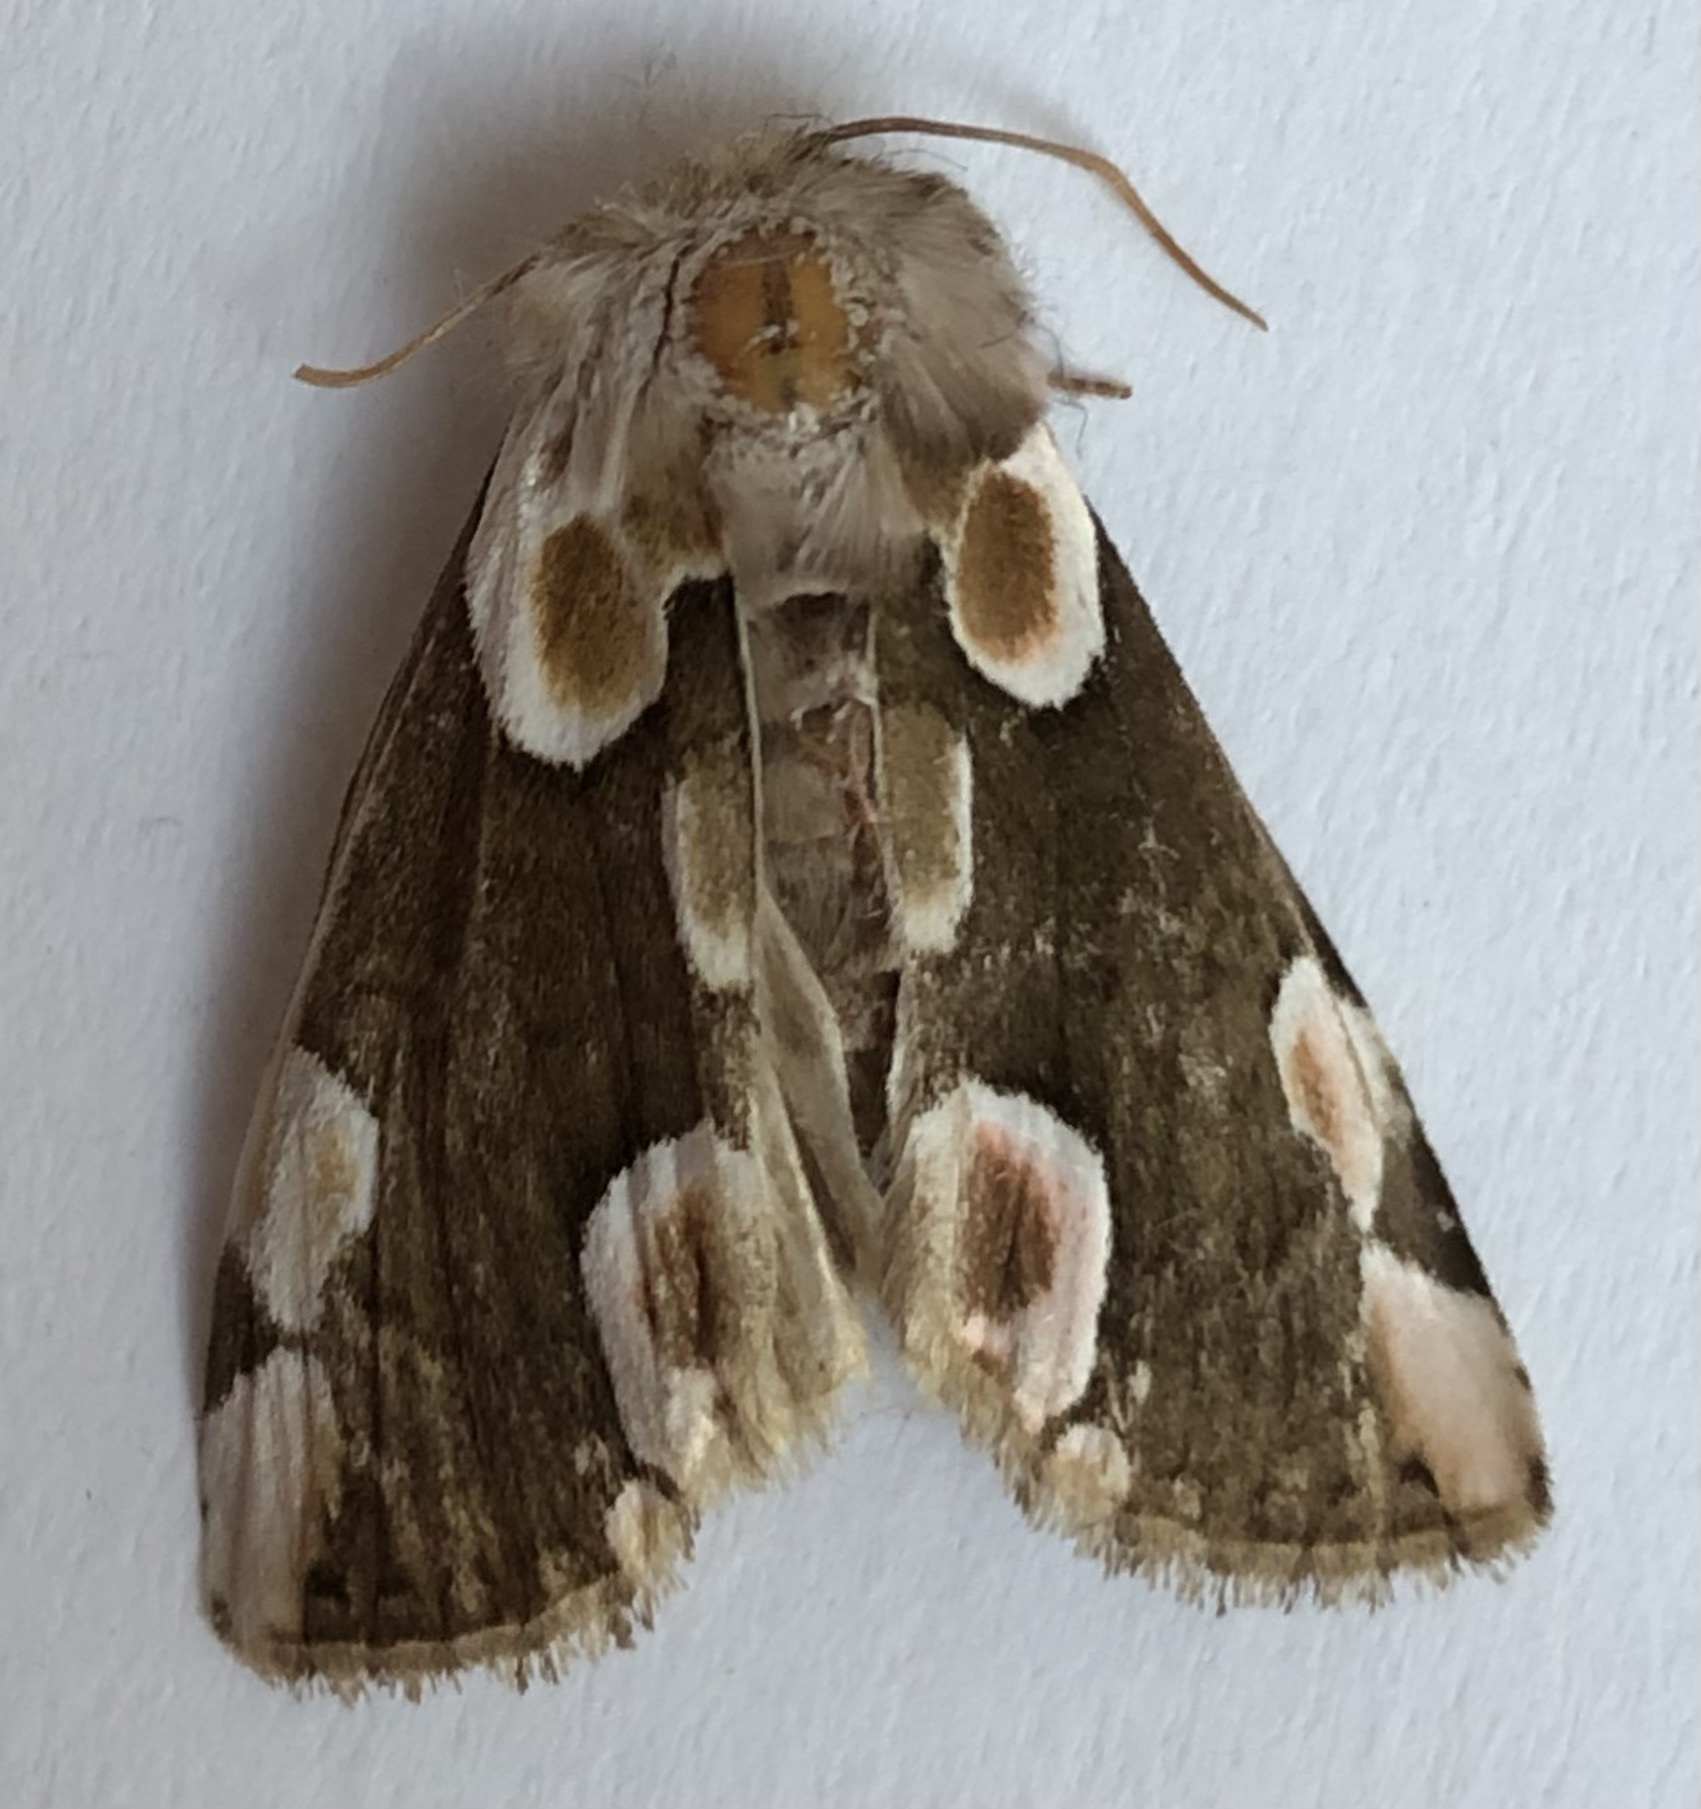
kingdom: Animalia
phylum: Arthropoda
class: Insecta
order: Lepidoptera
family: Drepanidae
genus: Thyatira
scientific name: Thyatira batis
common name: Peach blossom
